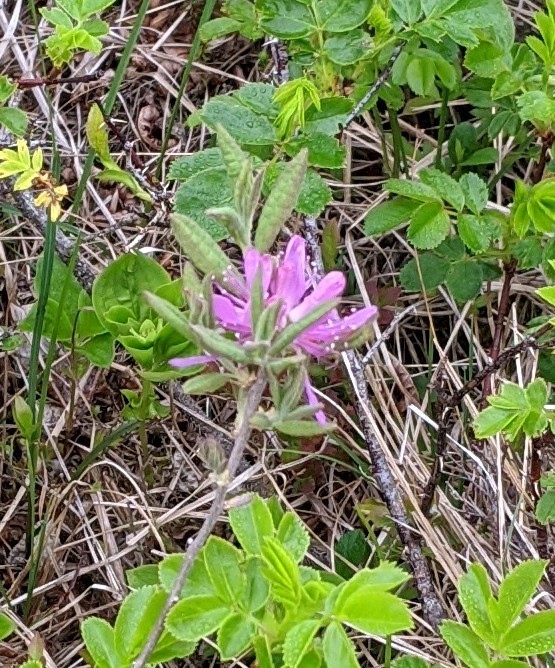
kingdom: Plantae
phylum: Tracheophyta
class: Magnoliopsida
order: Ericales
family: Ericaceae
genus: Rhododendron
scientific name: Rhododendron canadense
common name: Rhodora
